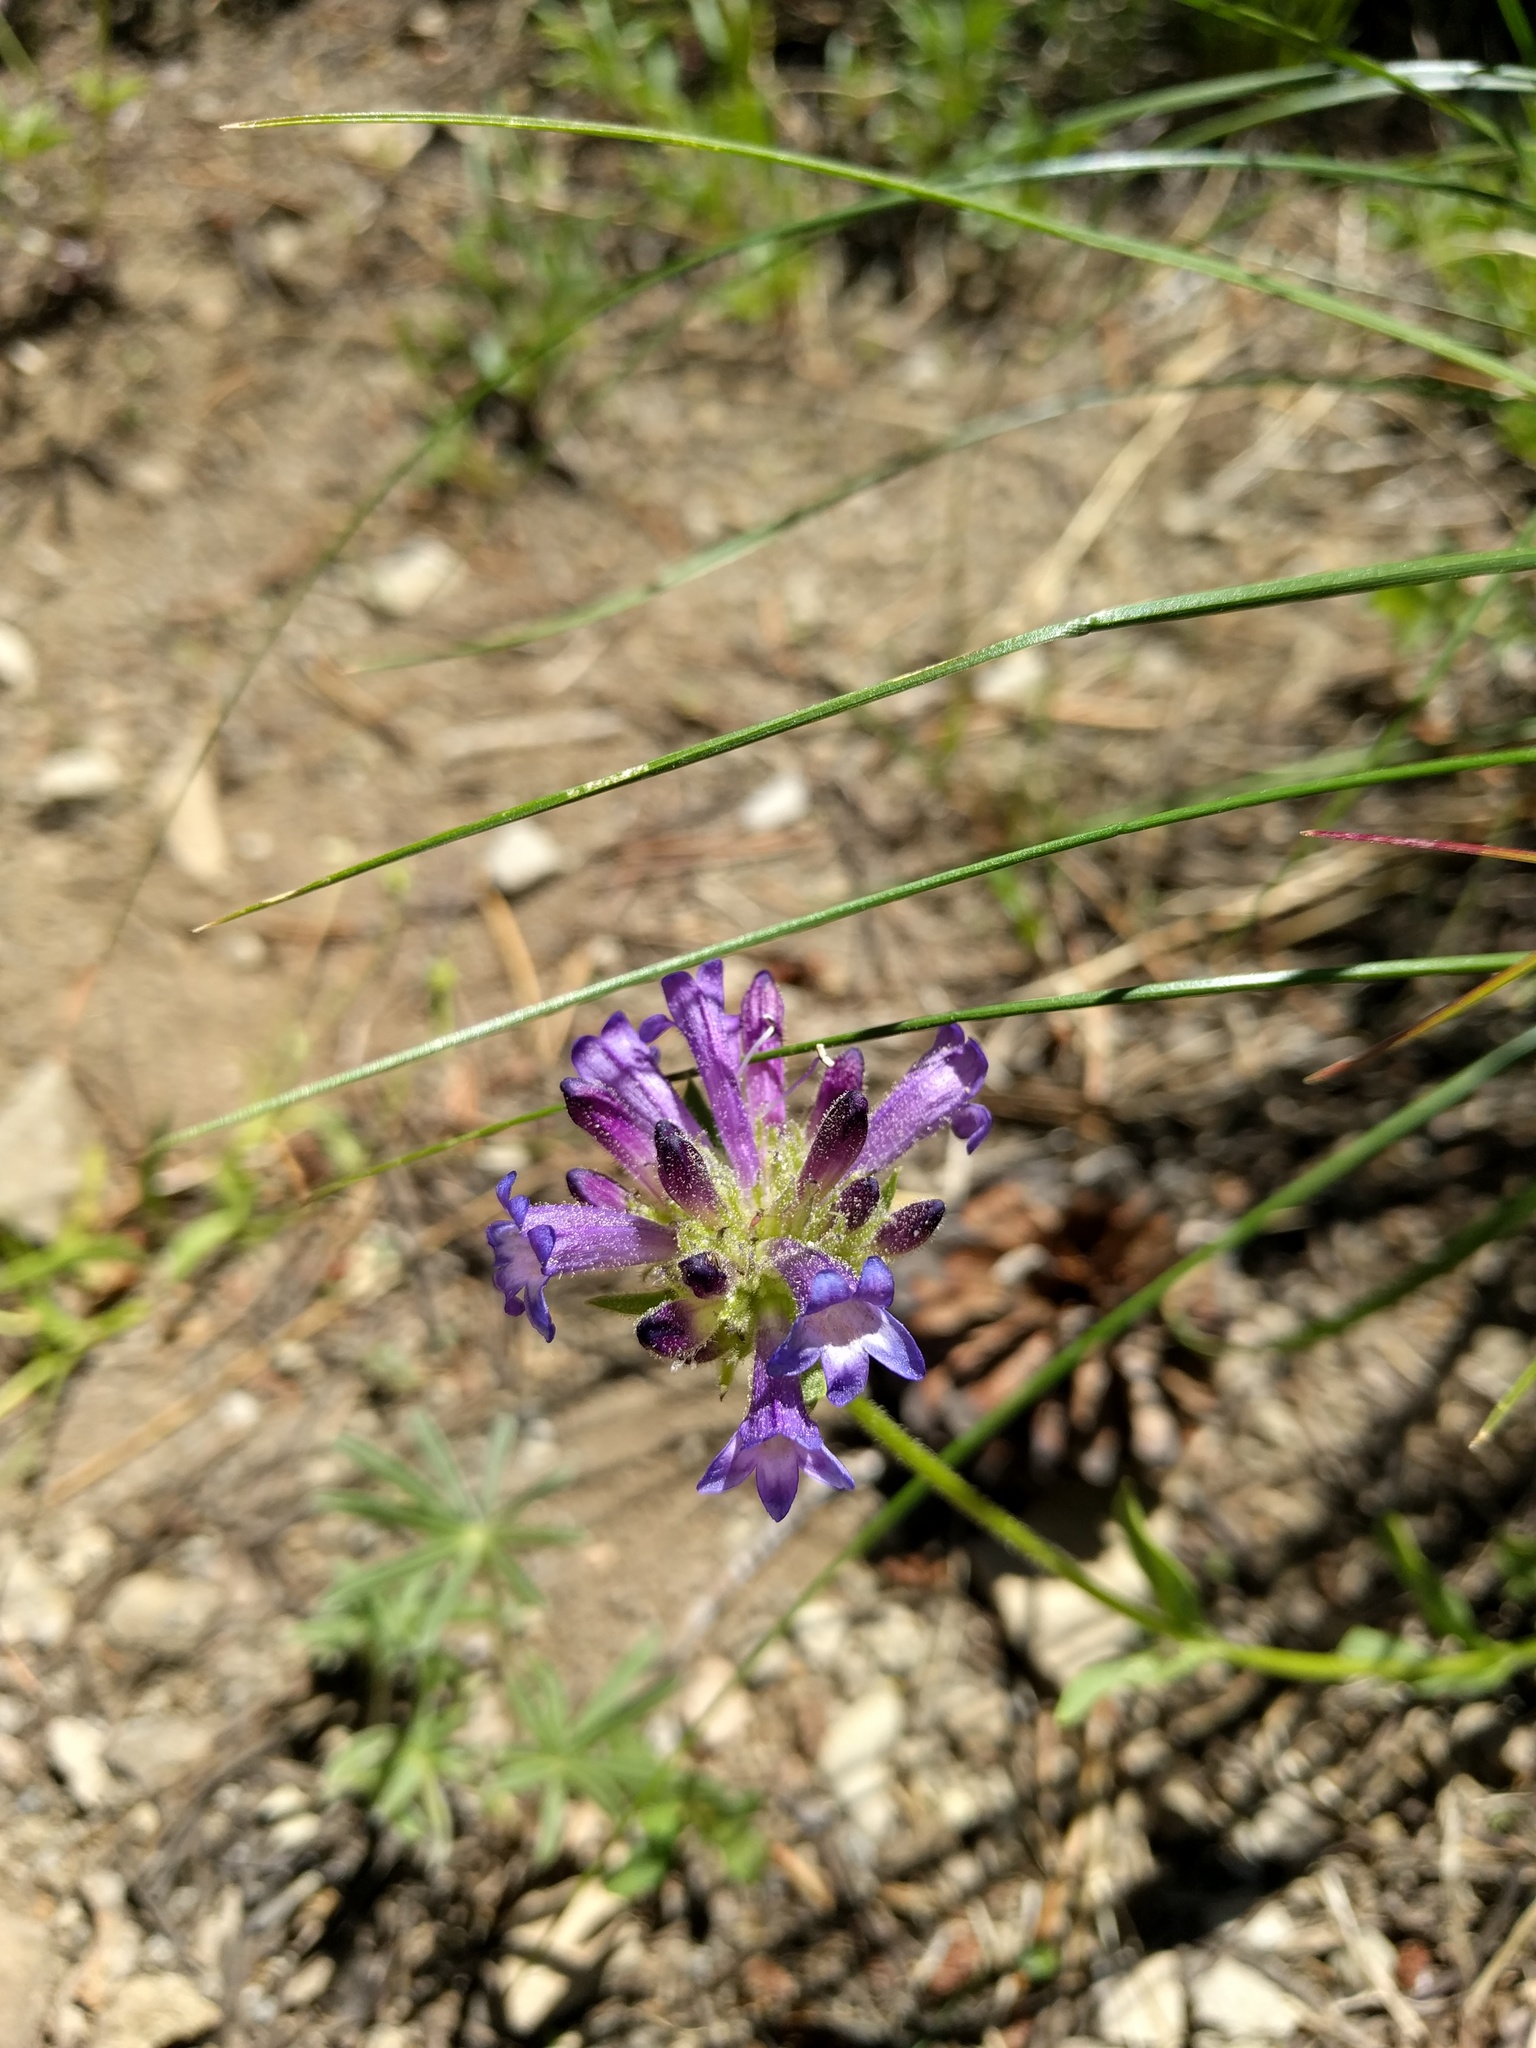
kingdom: Plantae
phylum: Tracheophyta
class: Magnoliopsida
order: Lamiales
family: Plantaginaceae
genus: Penstemon
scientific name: Penstemon heterodoxus
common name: Sierran penstemon
